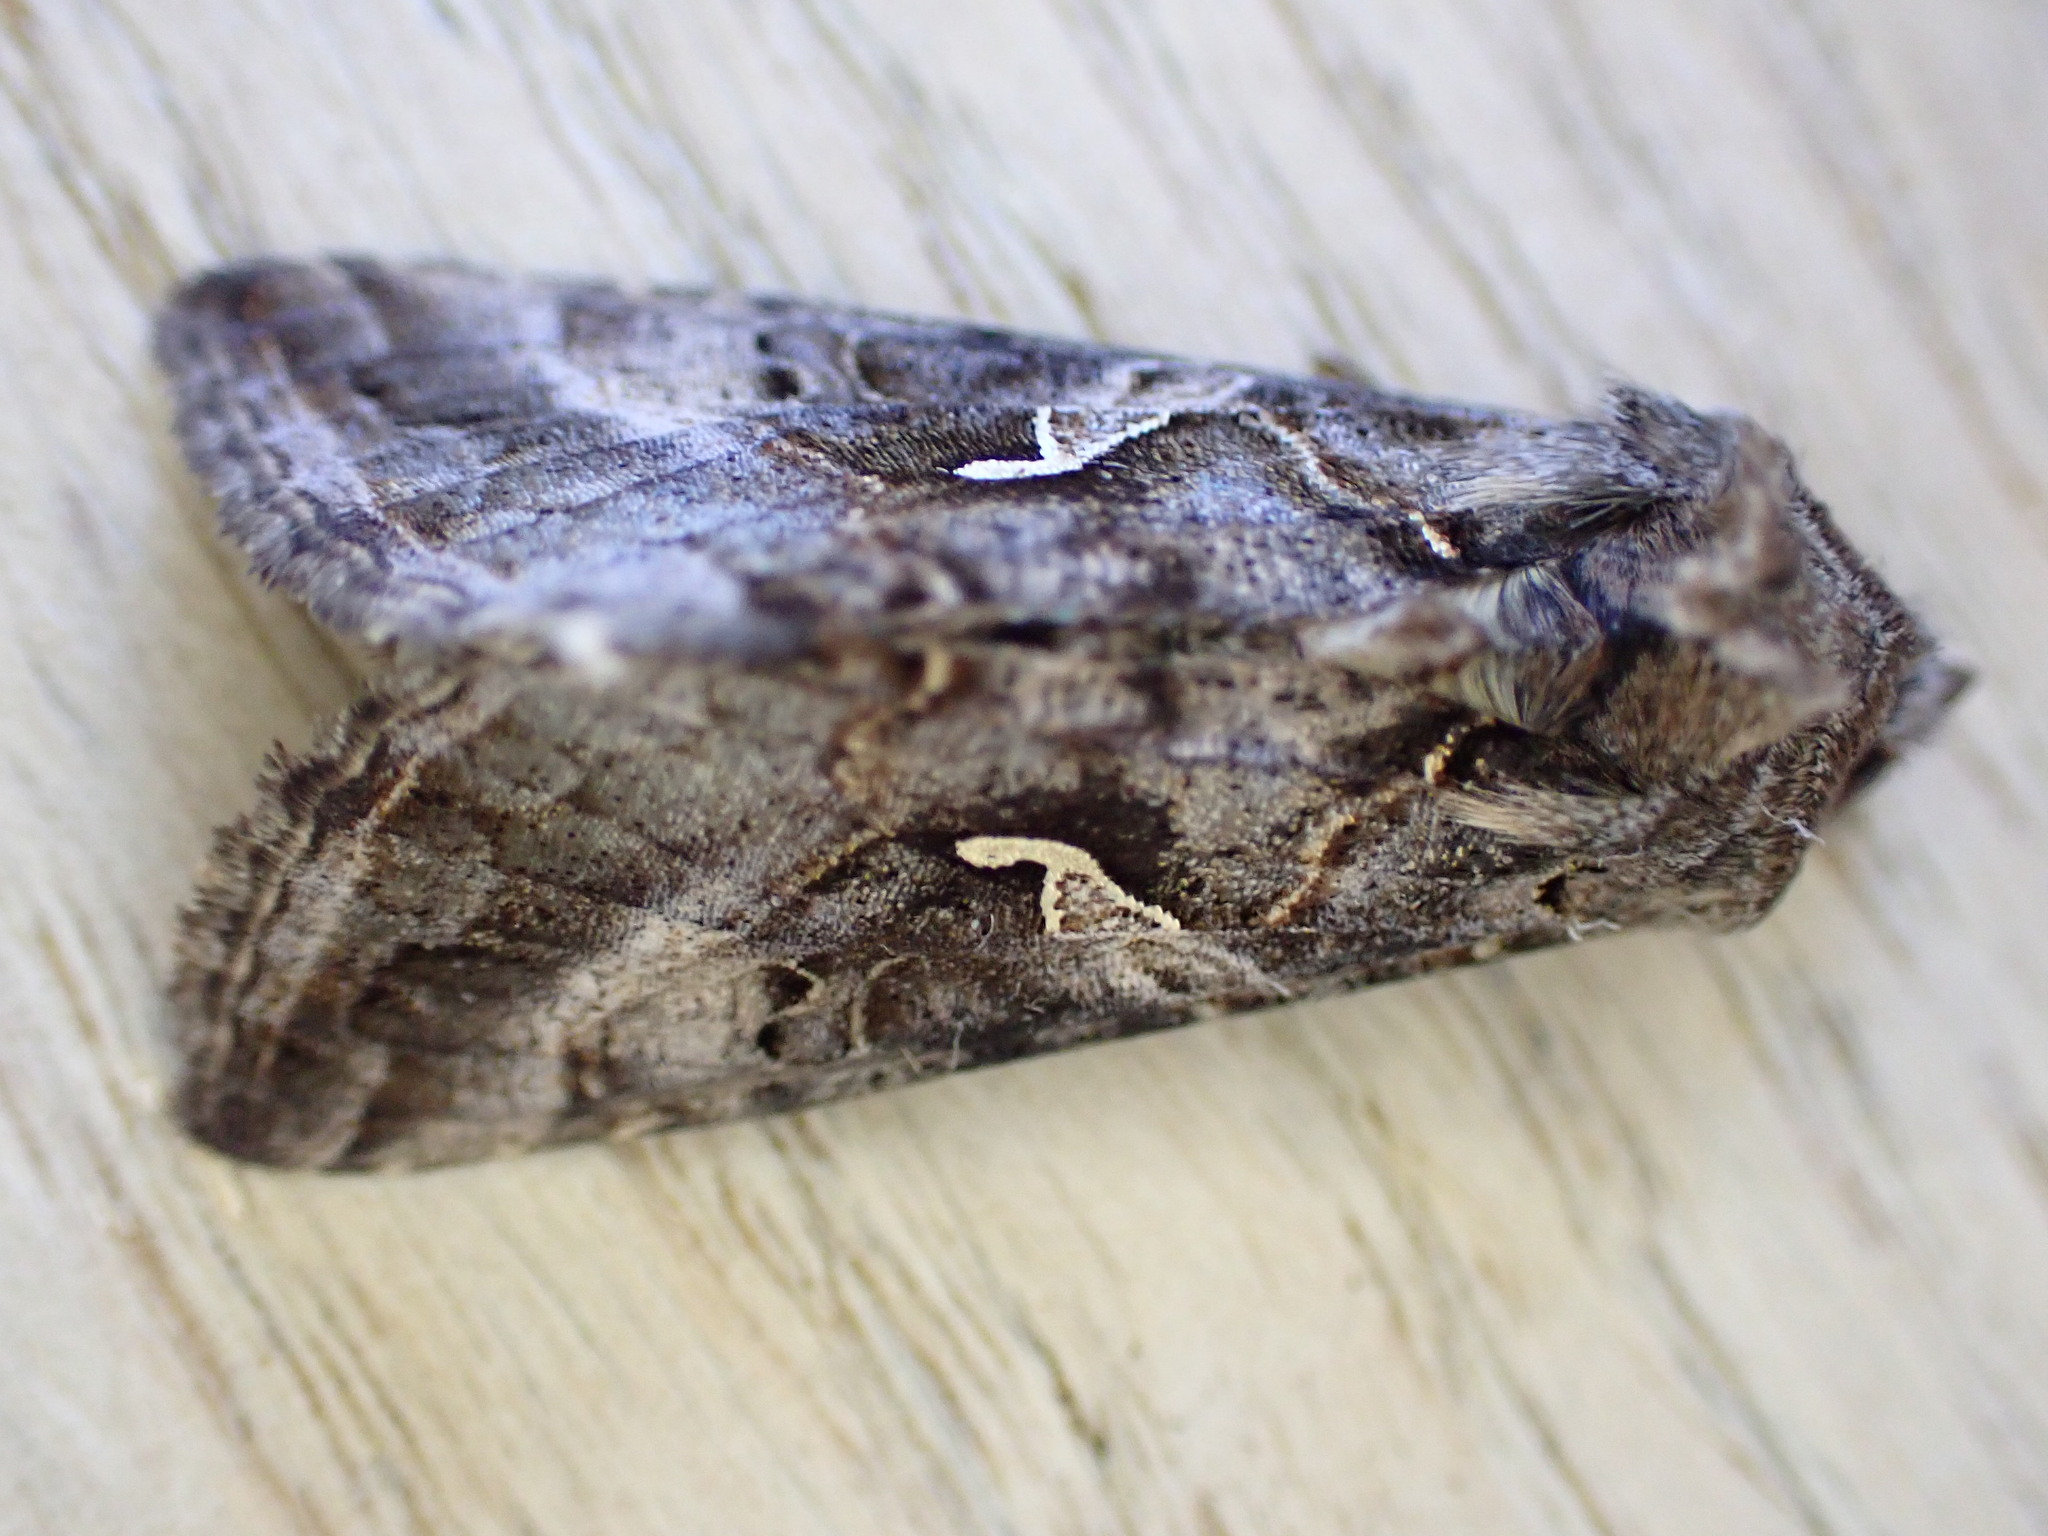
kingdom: Animalia
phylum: Arthropoda
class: Insecta
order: Lepidoptera
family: Noctuidae
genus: Autographa
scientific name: Autographa gamma
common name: Silver y
